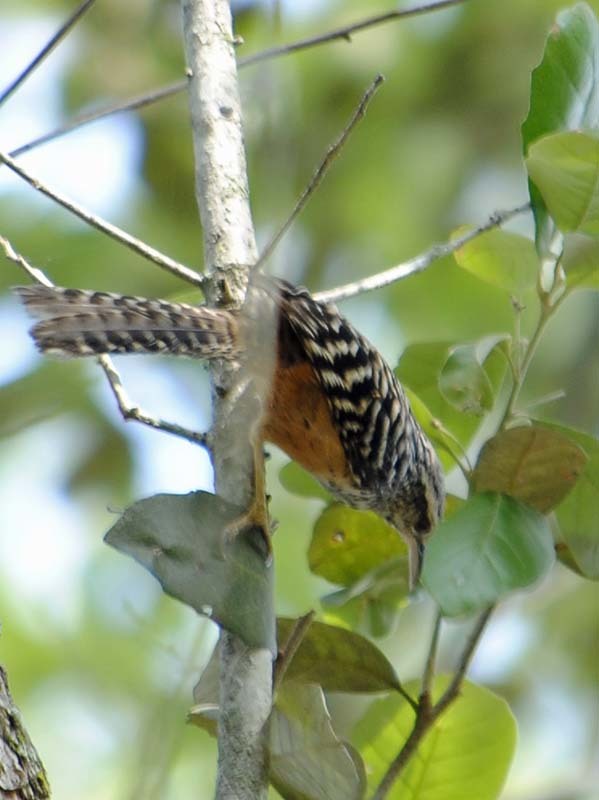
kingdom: Animalia
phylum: Chordata
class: Aves
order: Passeriformes
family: Troglodytidae
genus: Campylorhynchus
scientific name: Campylorhynchus zonatus
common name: Band-backed wren
